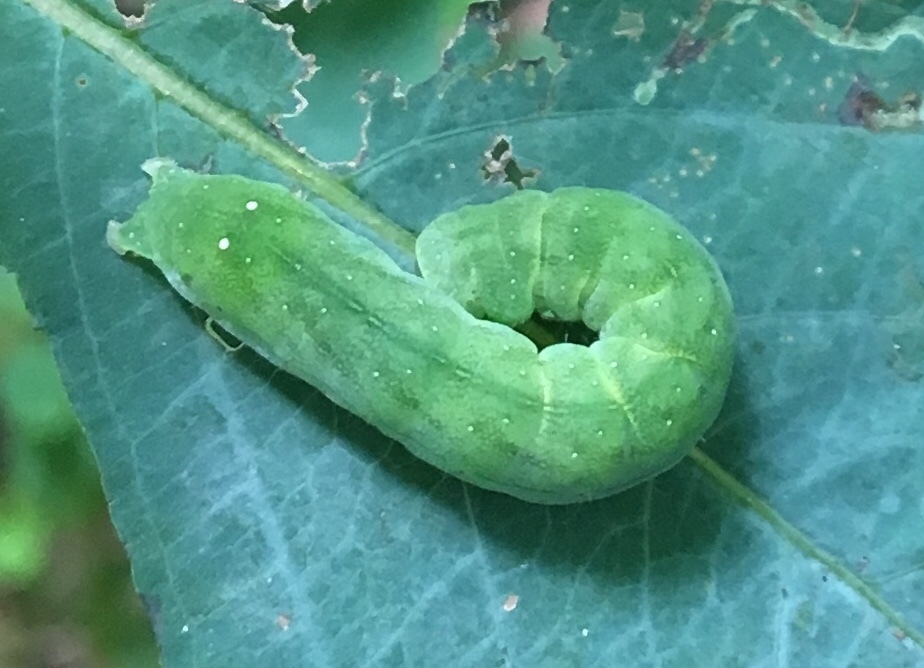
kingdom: Animalia
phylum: Arthropoda
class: Insecta
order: Lepidoptera
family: Noctuidae
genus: Euplexia
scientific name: Euplexia benesimilis
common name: American angle shades
